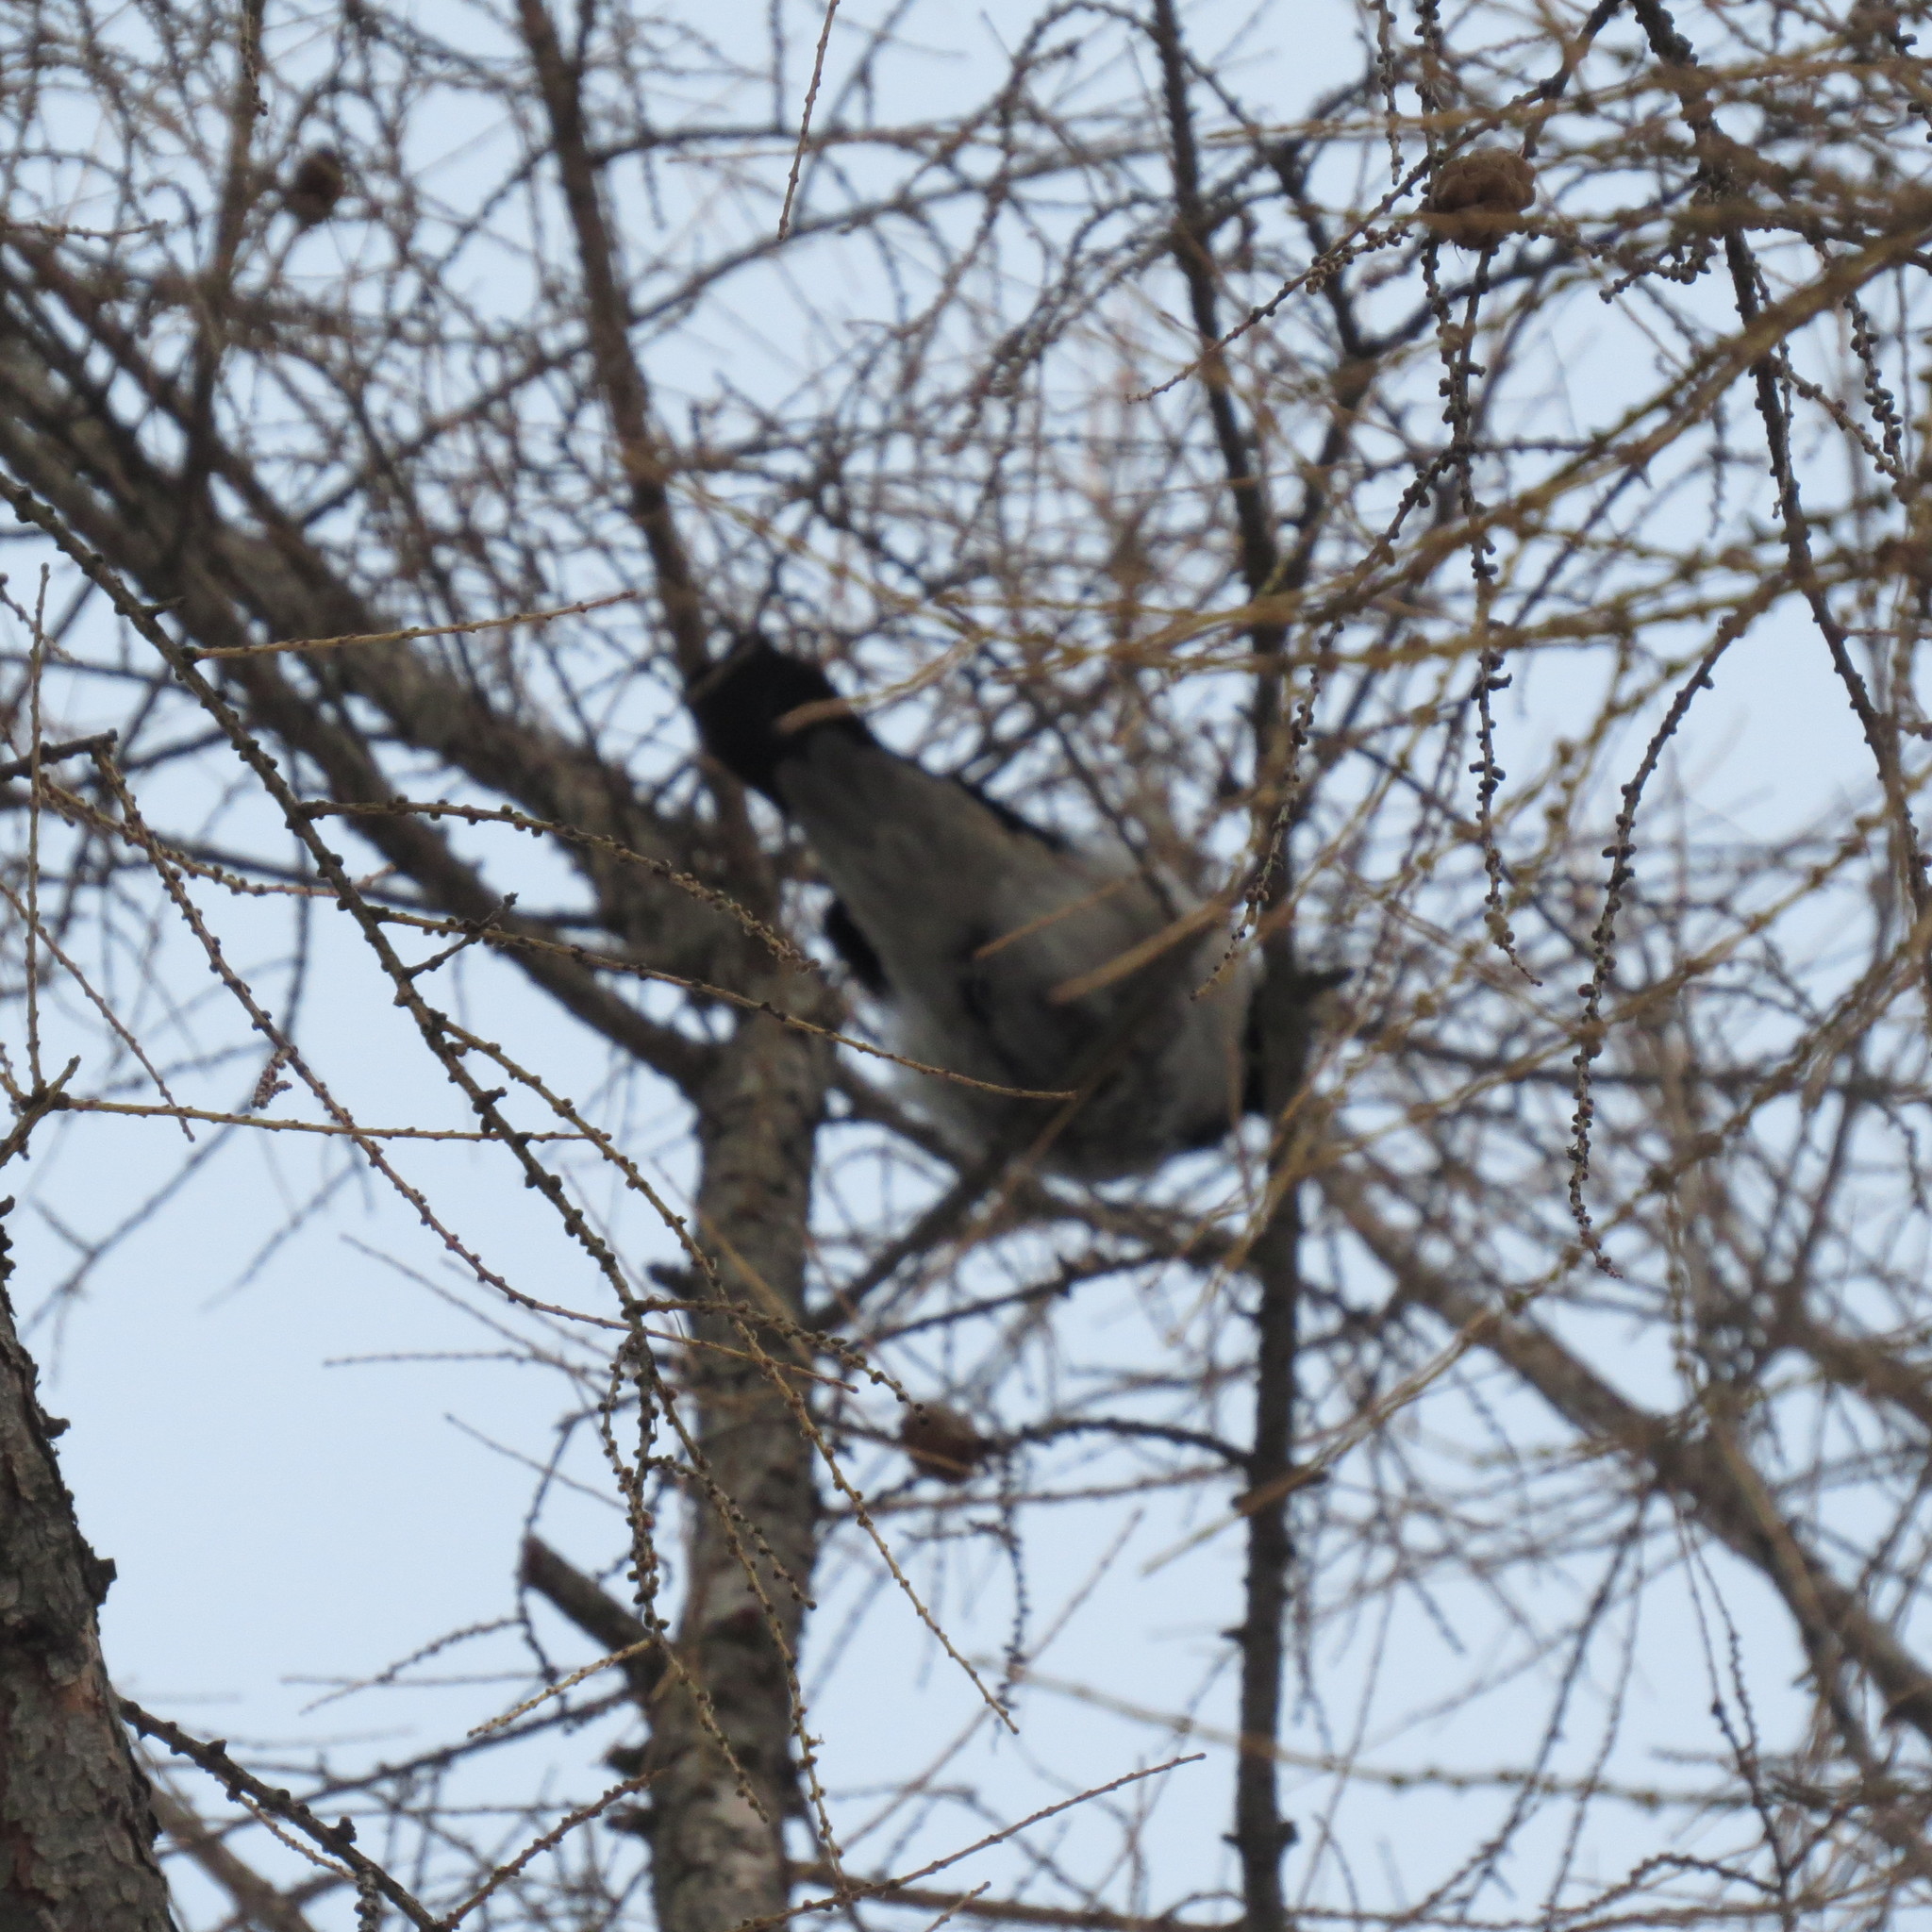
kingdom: Animalia
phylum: Chordata
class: Aves
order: Passeriformes
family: Corvidae
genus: Corvus
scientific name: Corvus cornix
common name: Hooded crow
